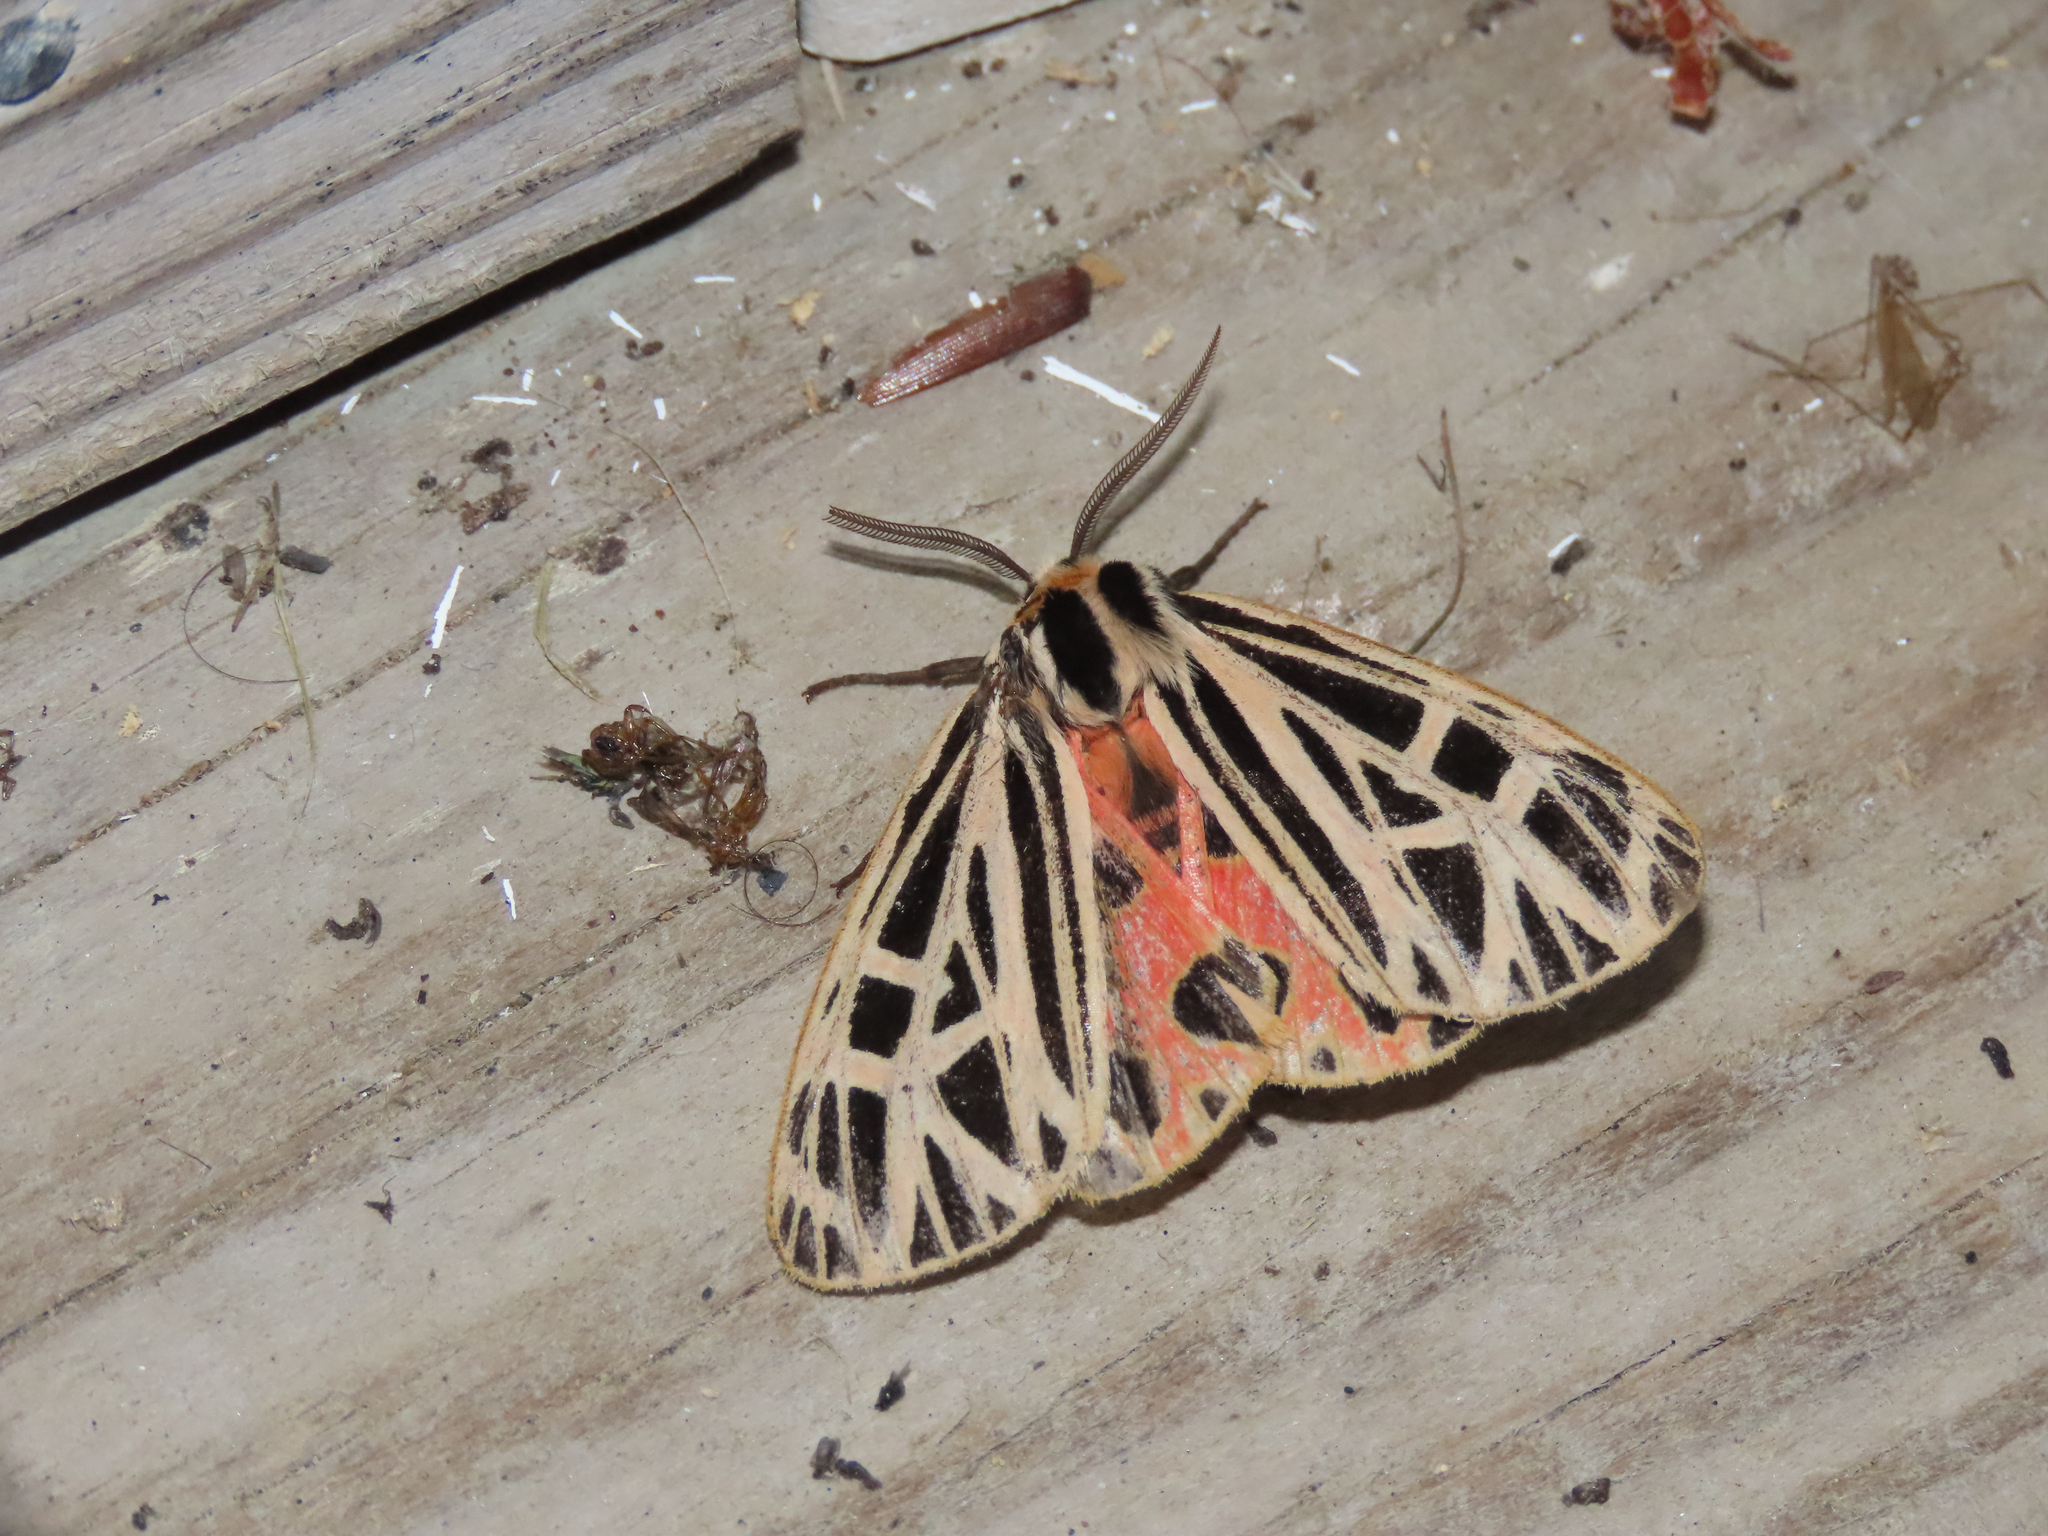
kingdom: Animalia
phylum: Arthropoda
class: Insecta
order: Lepidoptera
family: Erebidae
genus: Grammia
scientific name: Grammia virgo
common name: Virgin tiger moth
